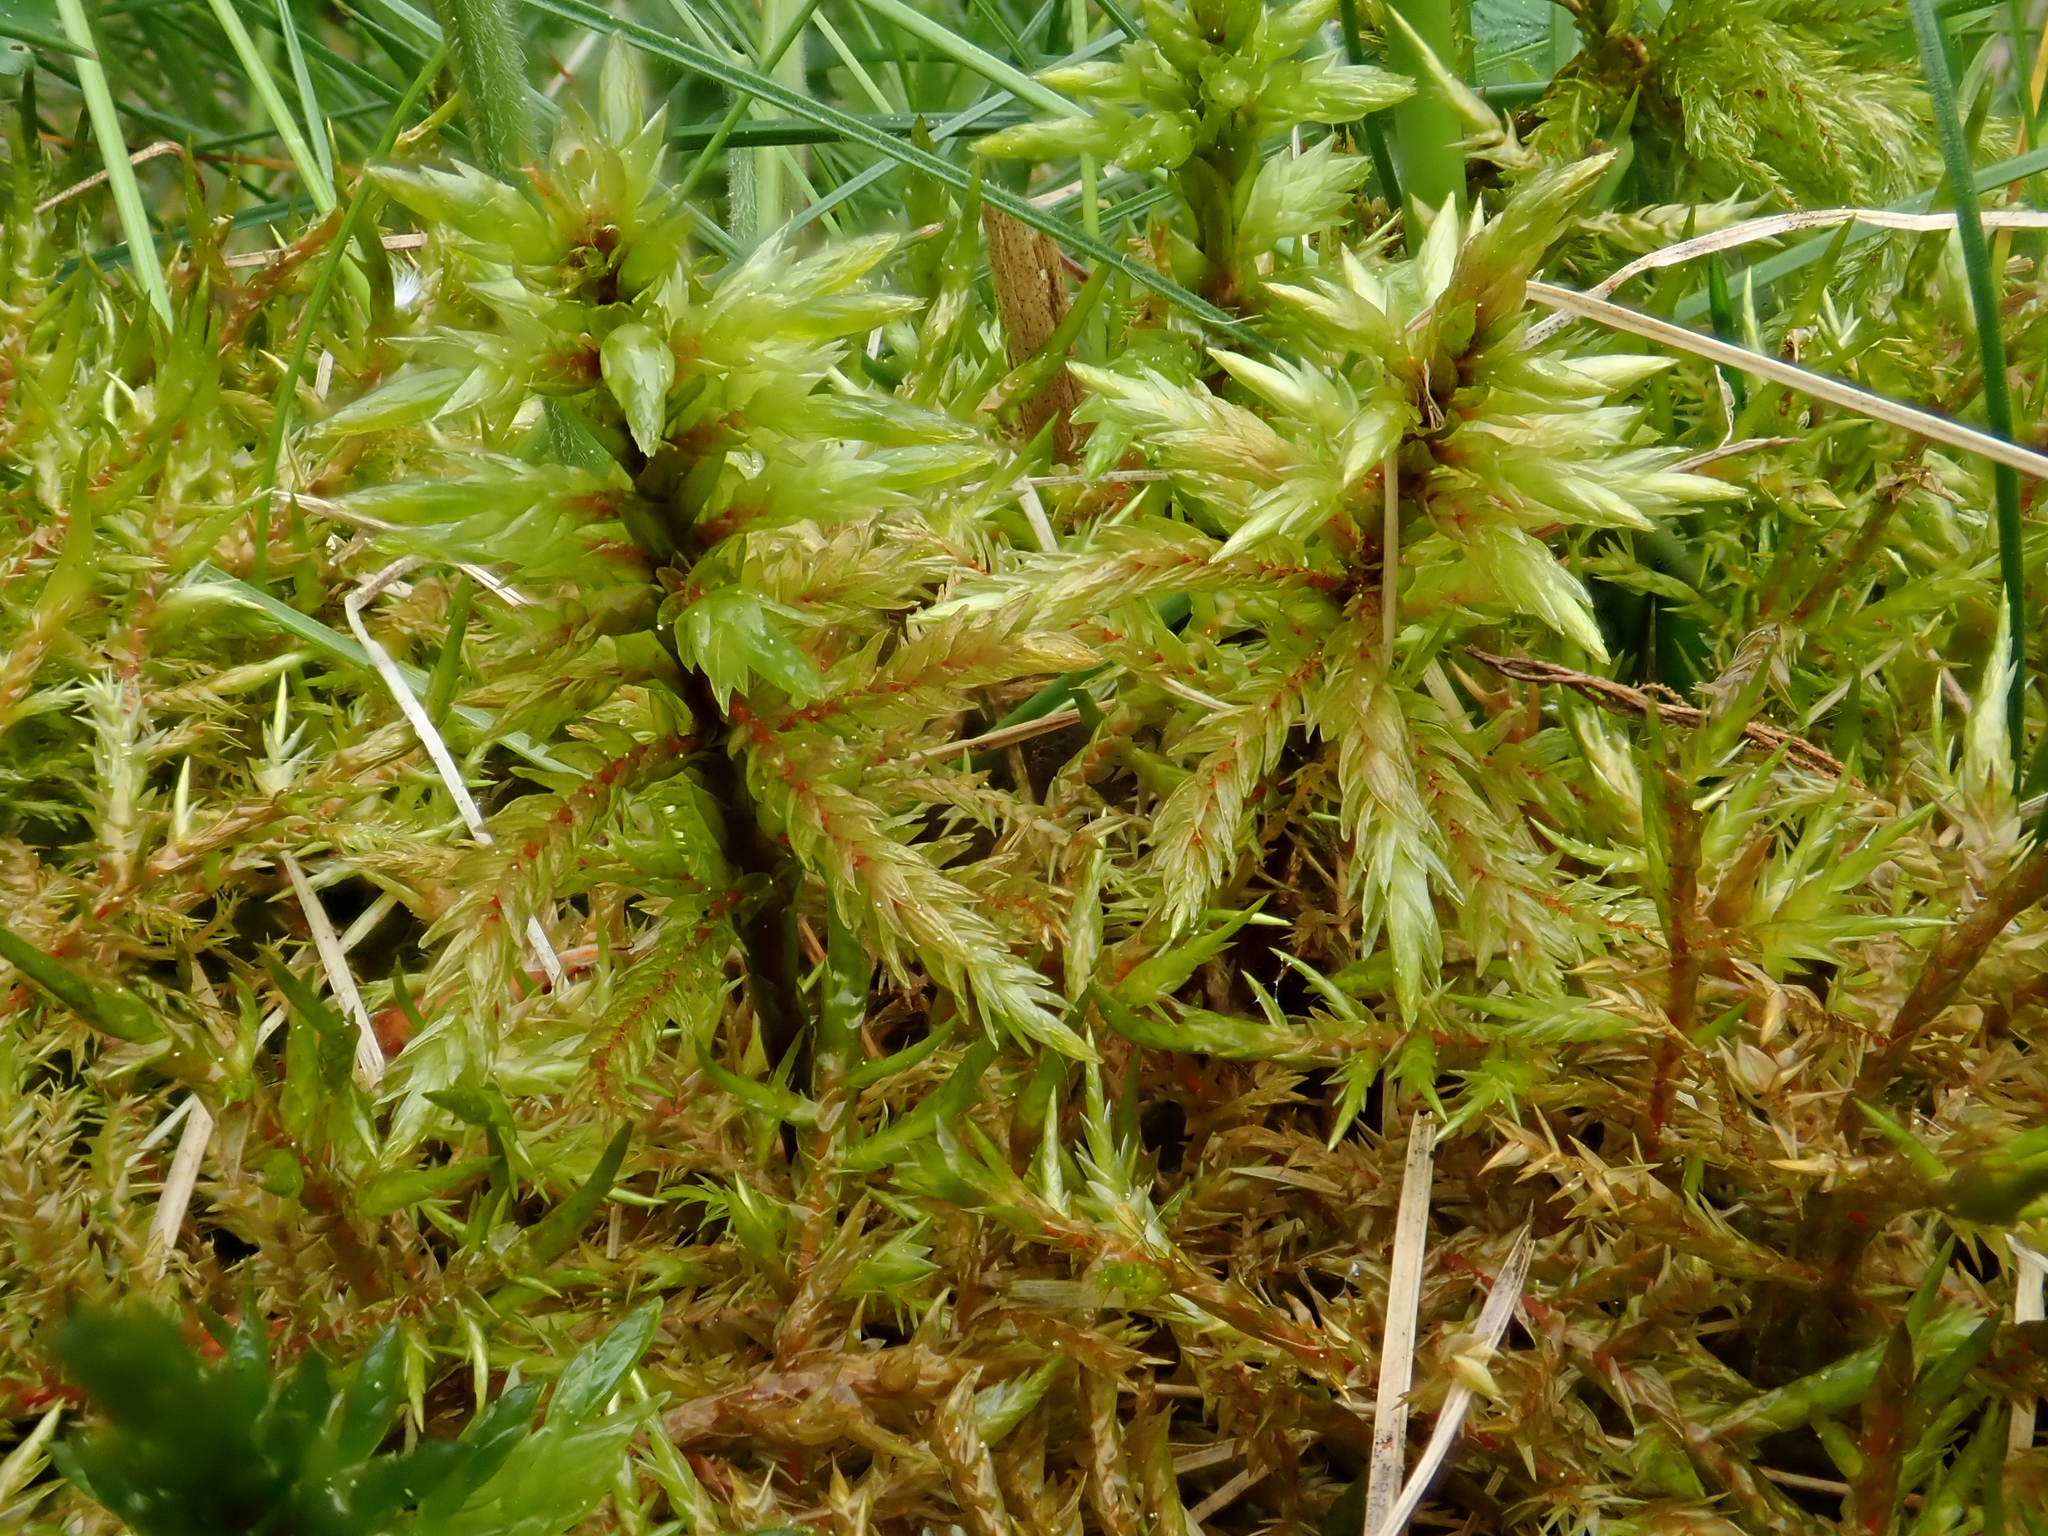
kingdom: Plantae
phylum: Bryophyta
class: Bryopsida
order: Hypnales
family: Climaciaceae
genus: Climacium
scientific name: Climacium dendroides
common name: Northern tree moss
